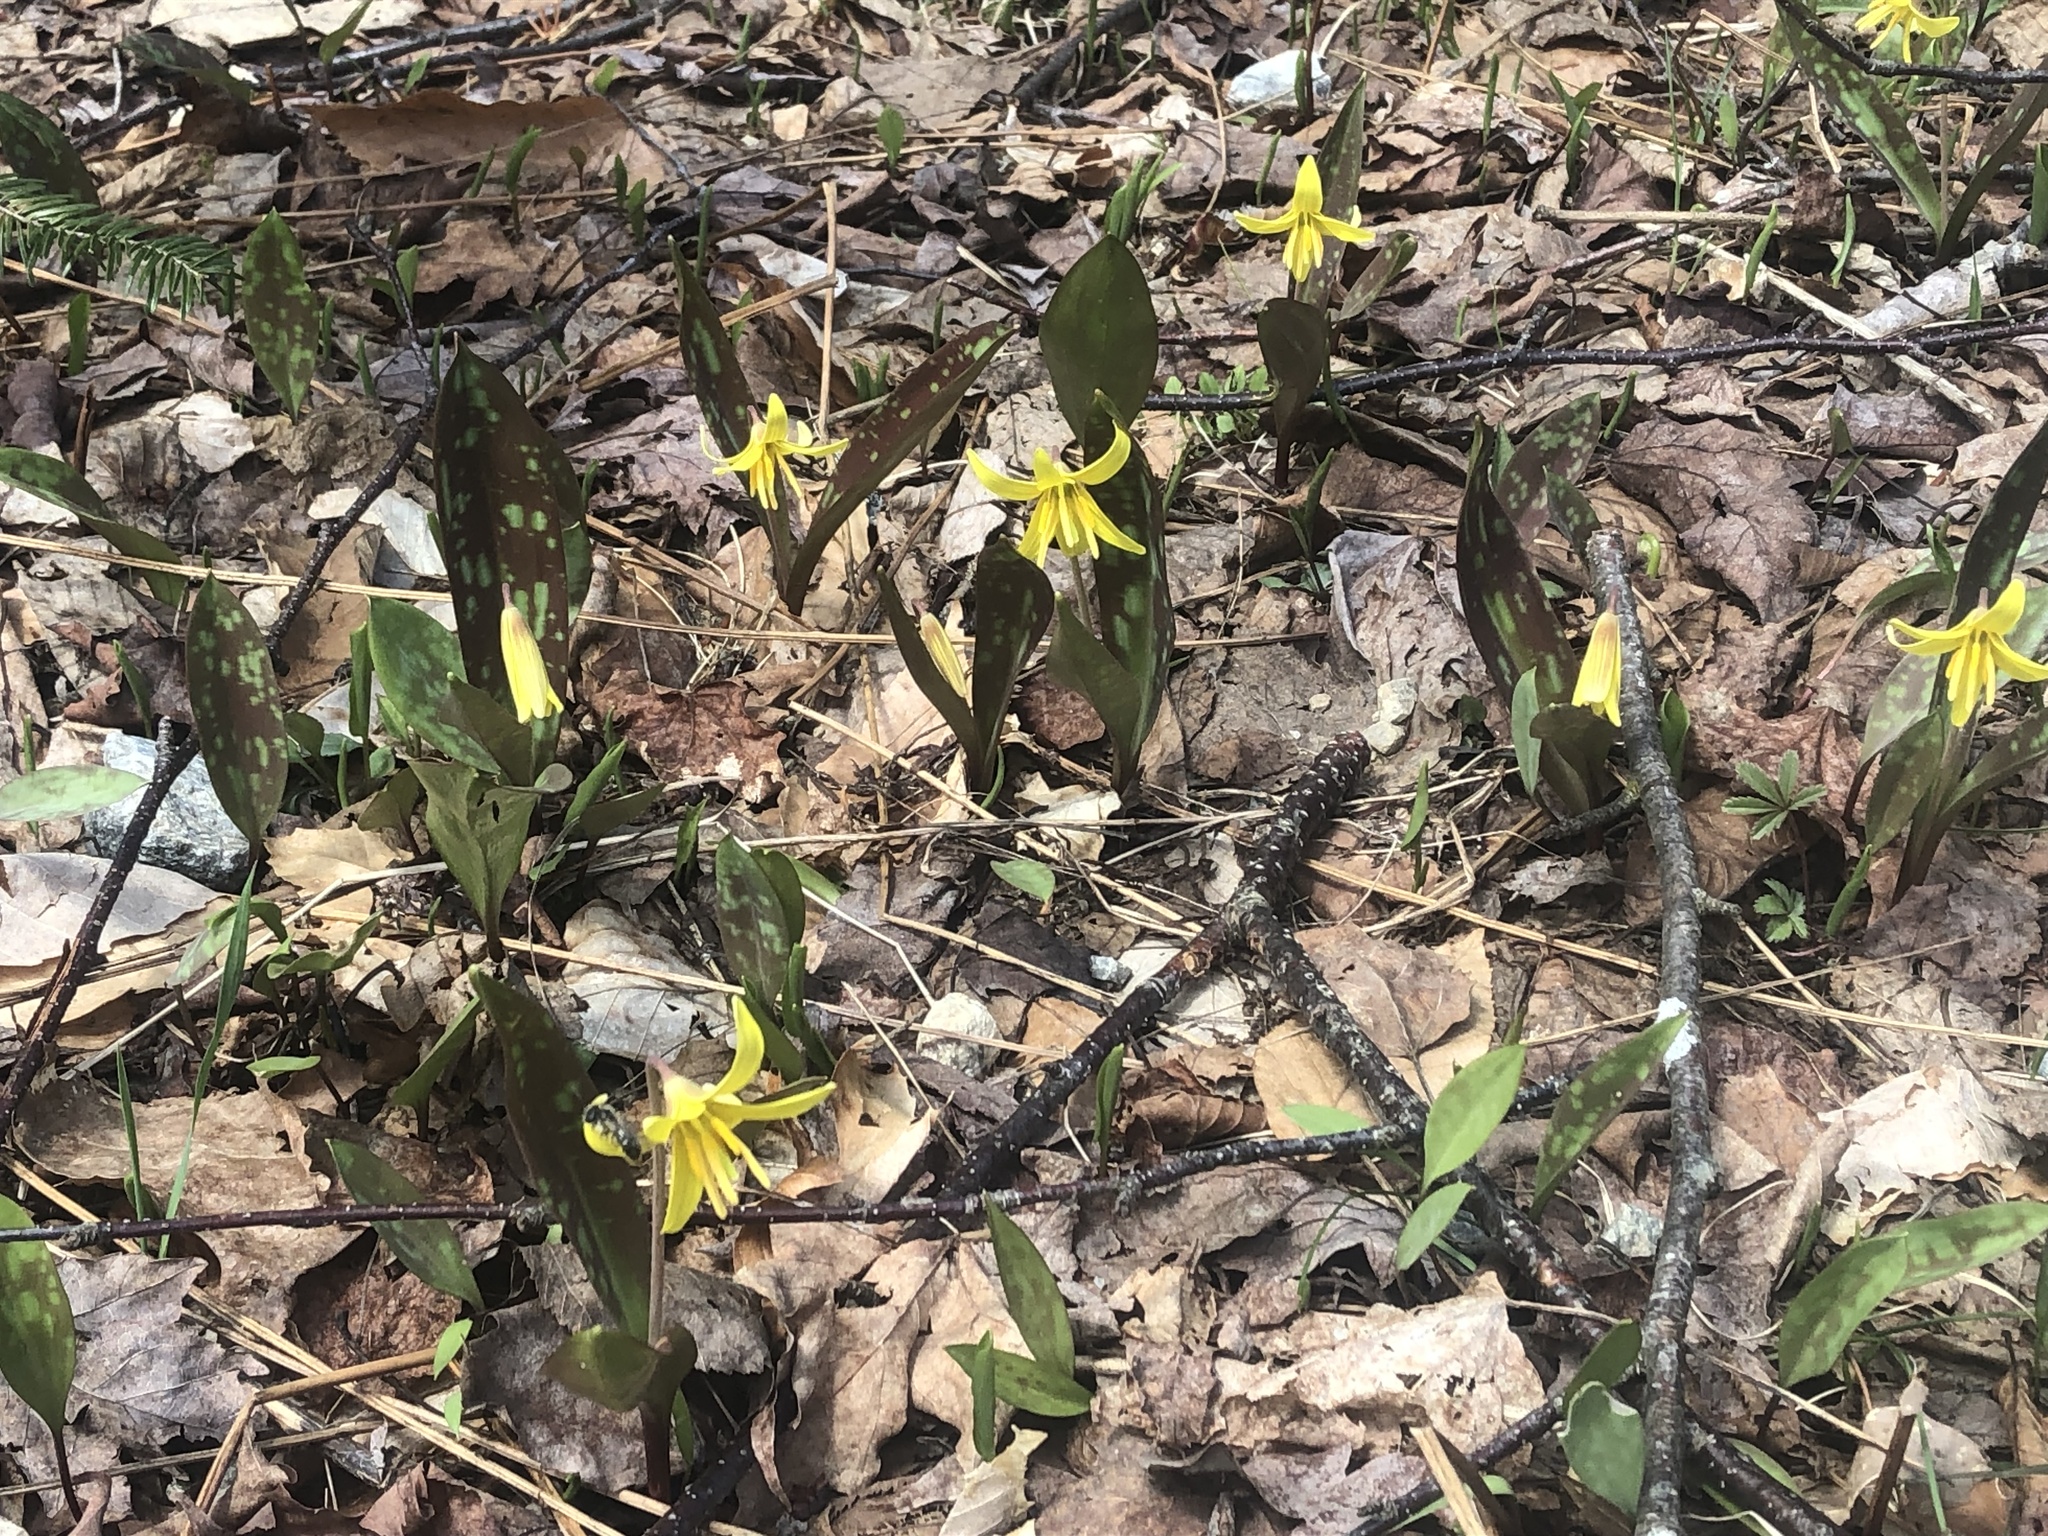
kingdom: Plantae
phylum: Tracheophyta
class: Liliopsida
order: Liliales
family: Liliaceae
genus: Erythronium
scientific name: Erythronium americanum
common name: Yellow adder's-tongue
